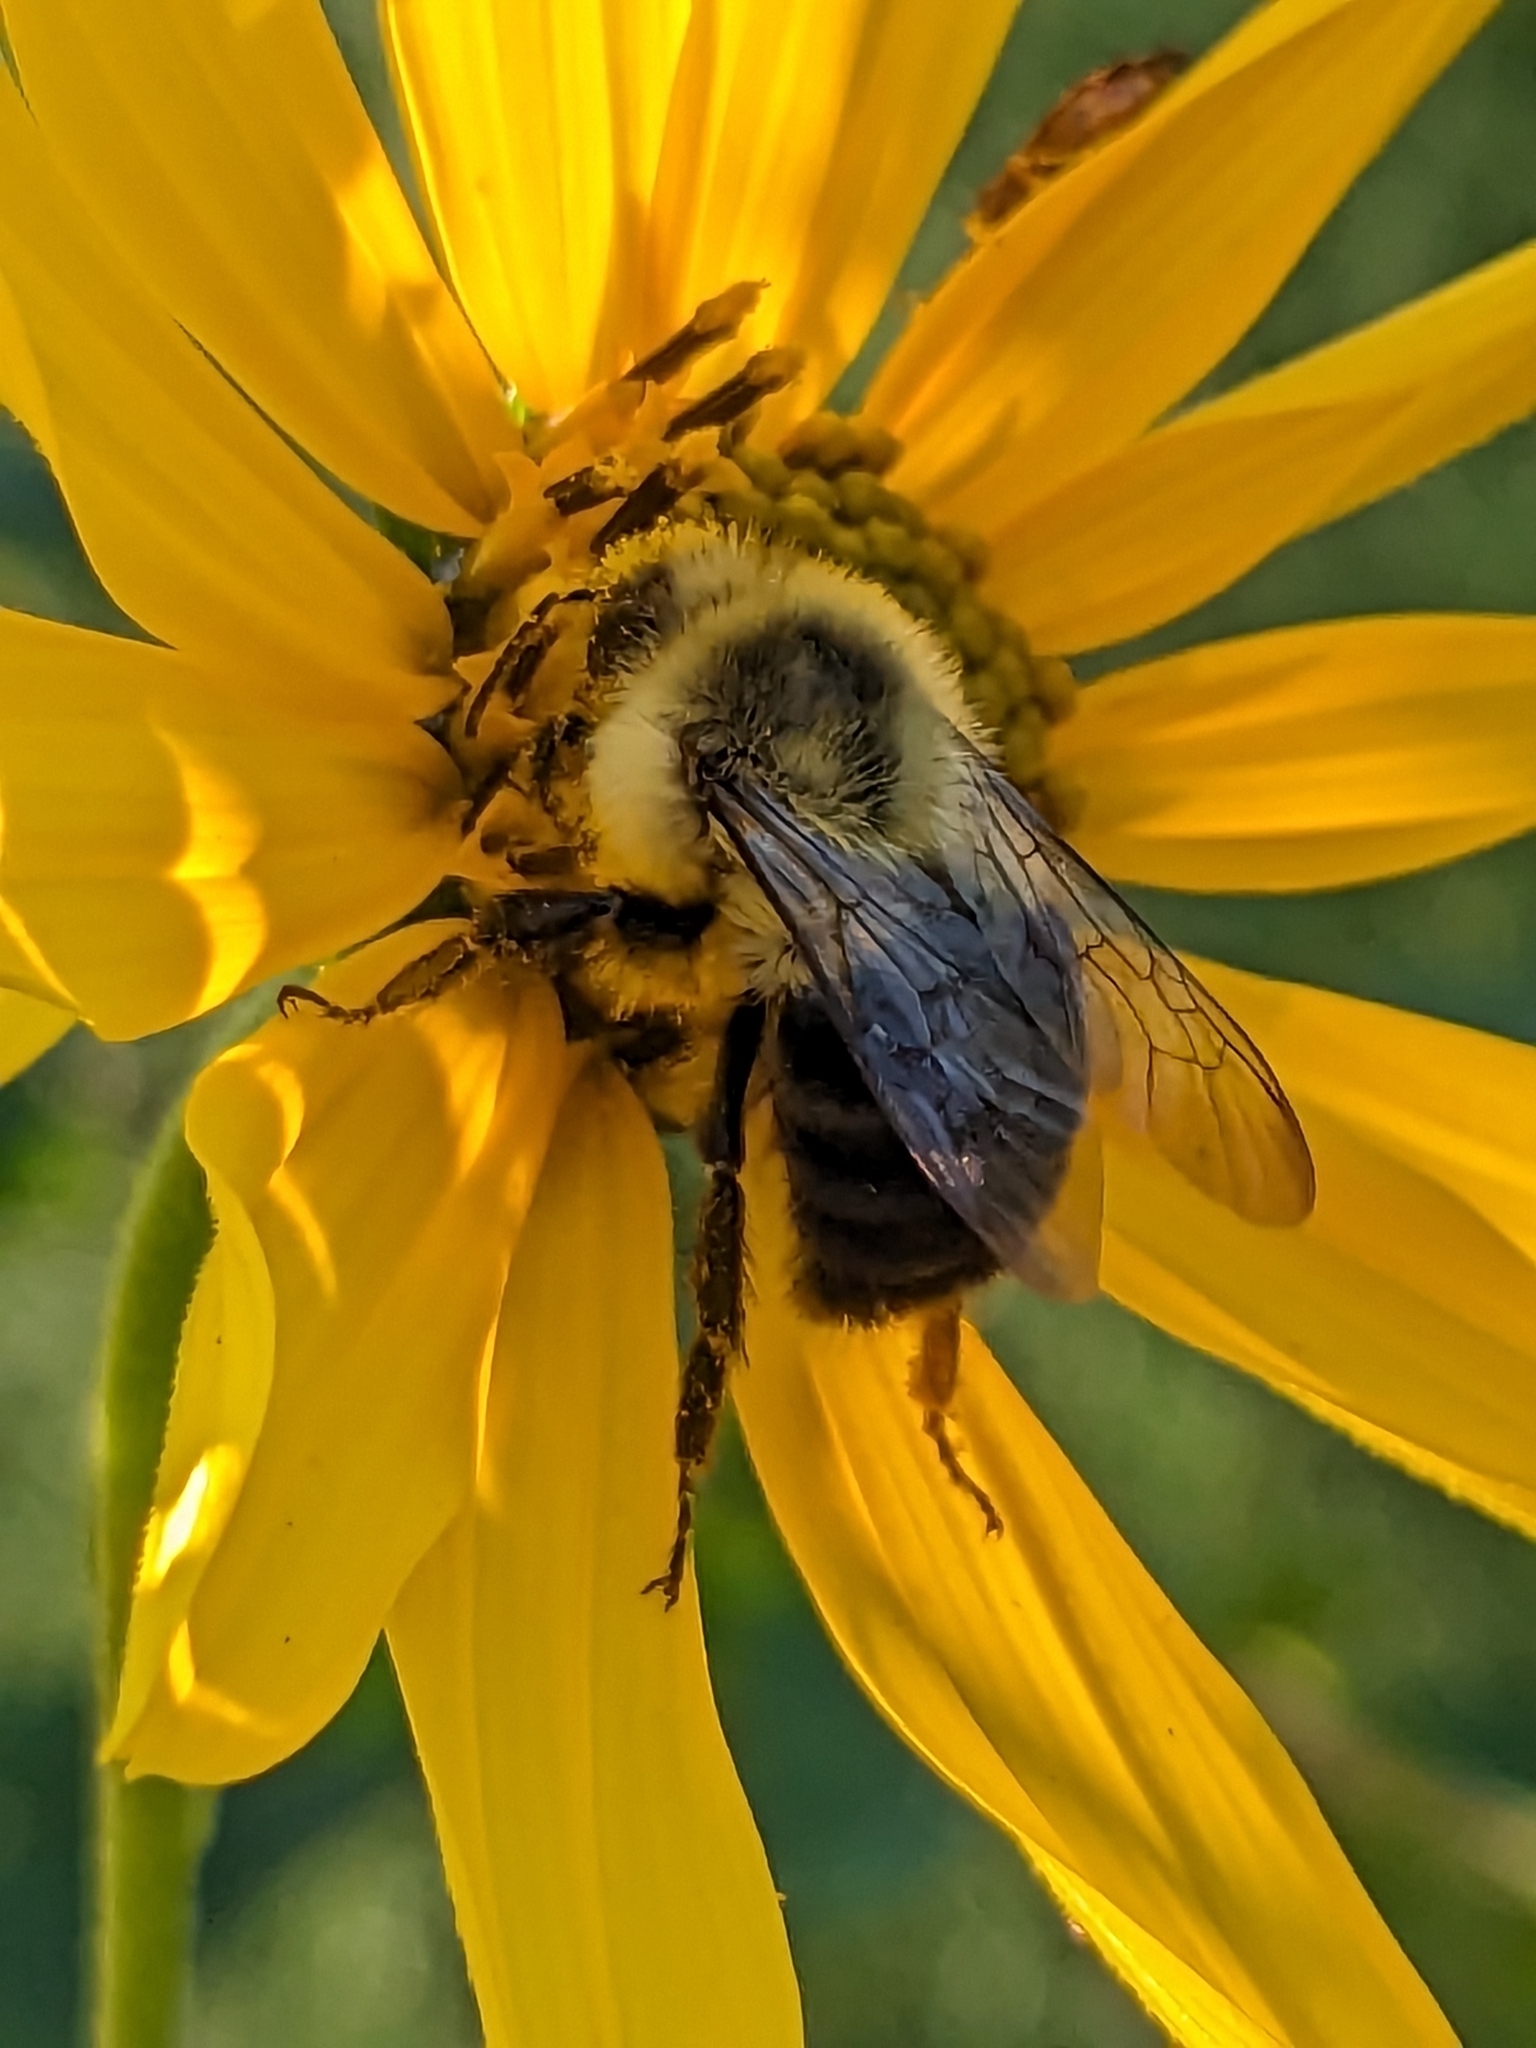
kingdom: Animalia
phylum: Arthropoda
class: Insecta
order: Hymenoptera
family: Apidae
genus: Bombus
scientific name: Bombus impatiens
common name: Common eastern bumble bee
